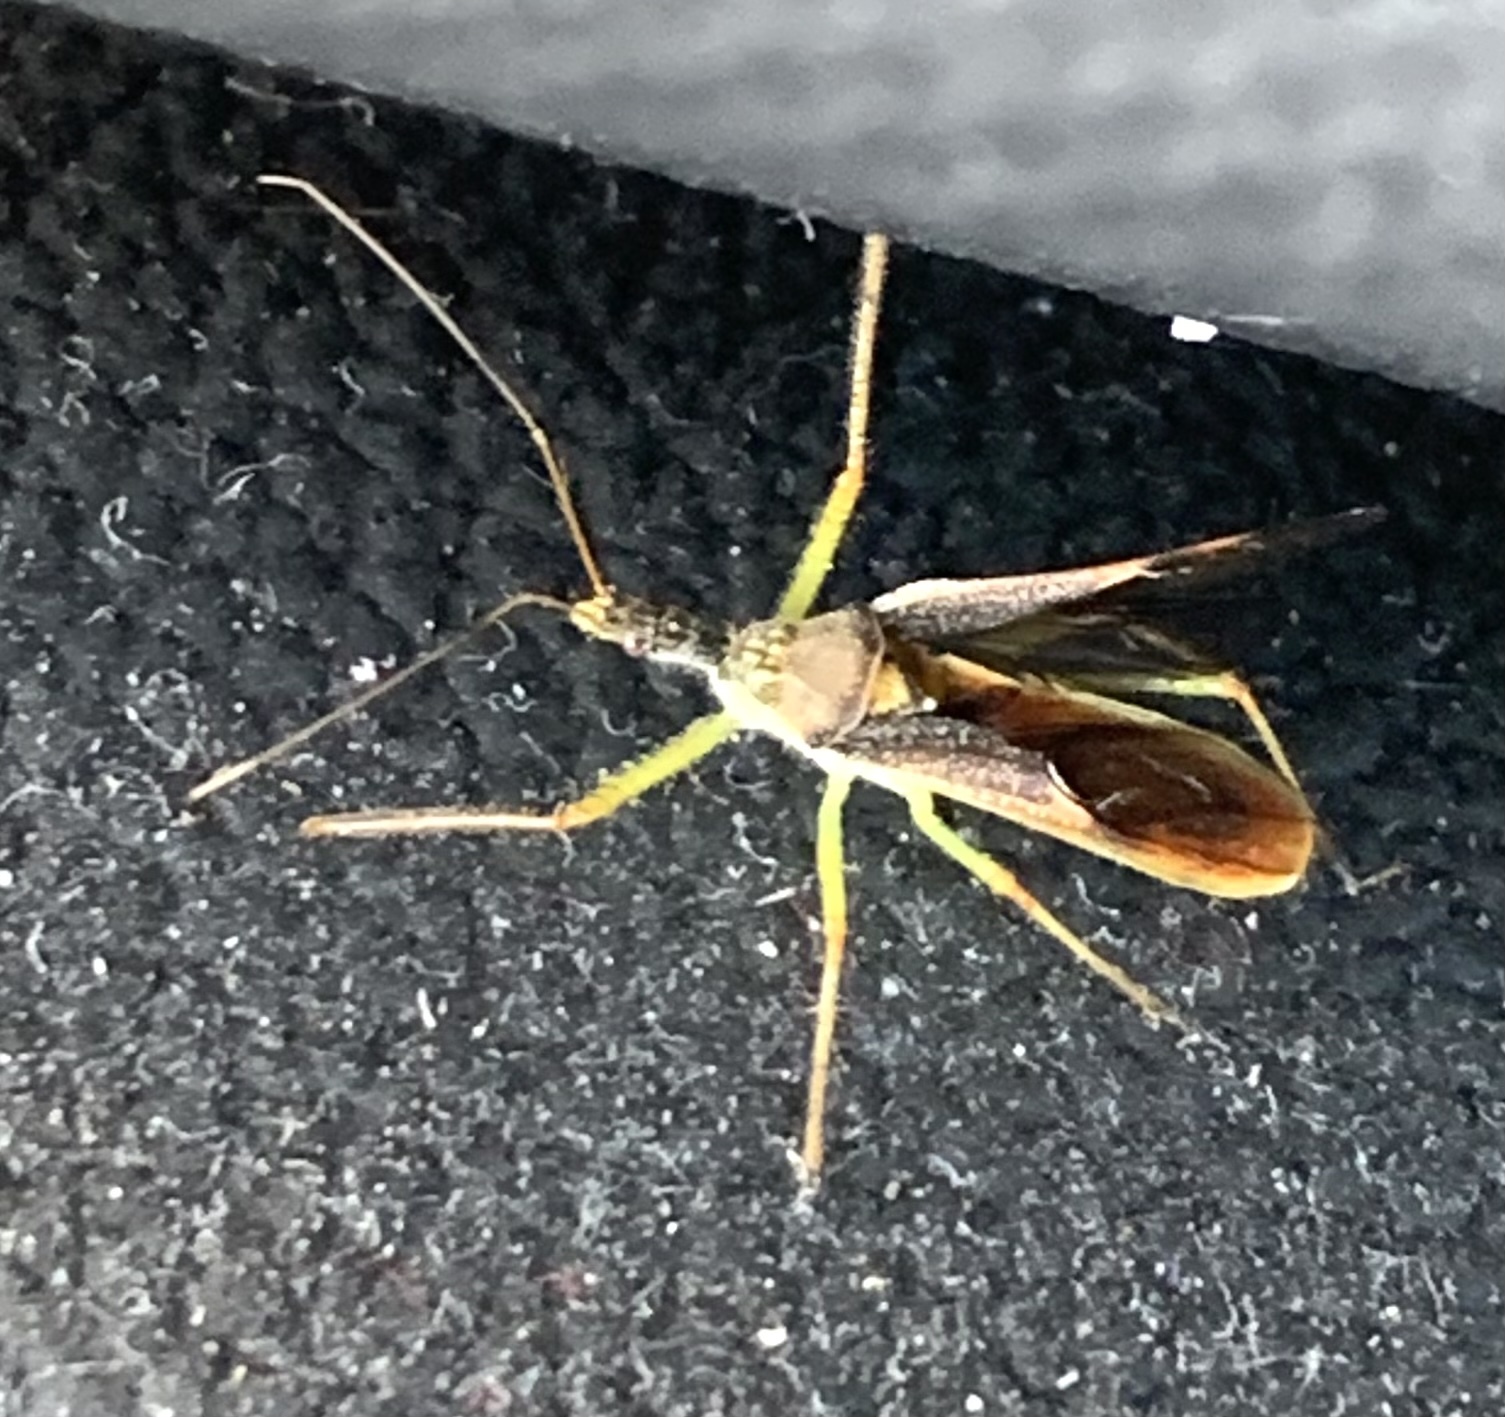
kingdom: Animalia
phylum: Arthropoda
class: Insecta
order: Hemiptera
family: Reduviidae
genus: Zelus
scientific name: Zelus renardii
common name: Assassin bug
